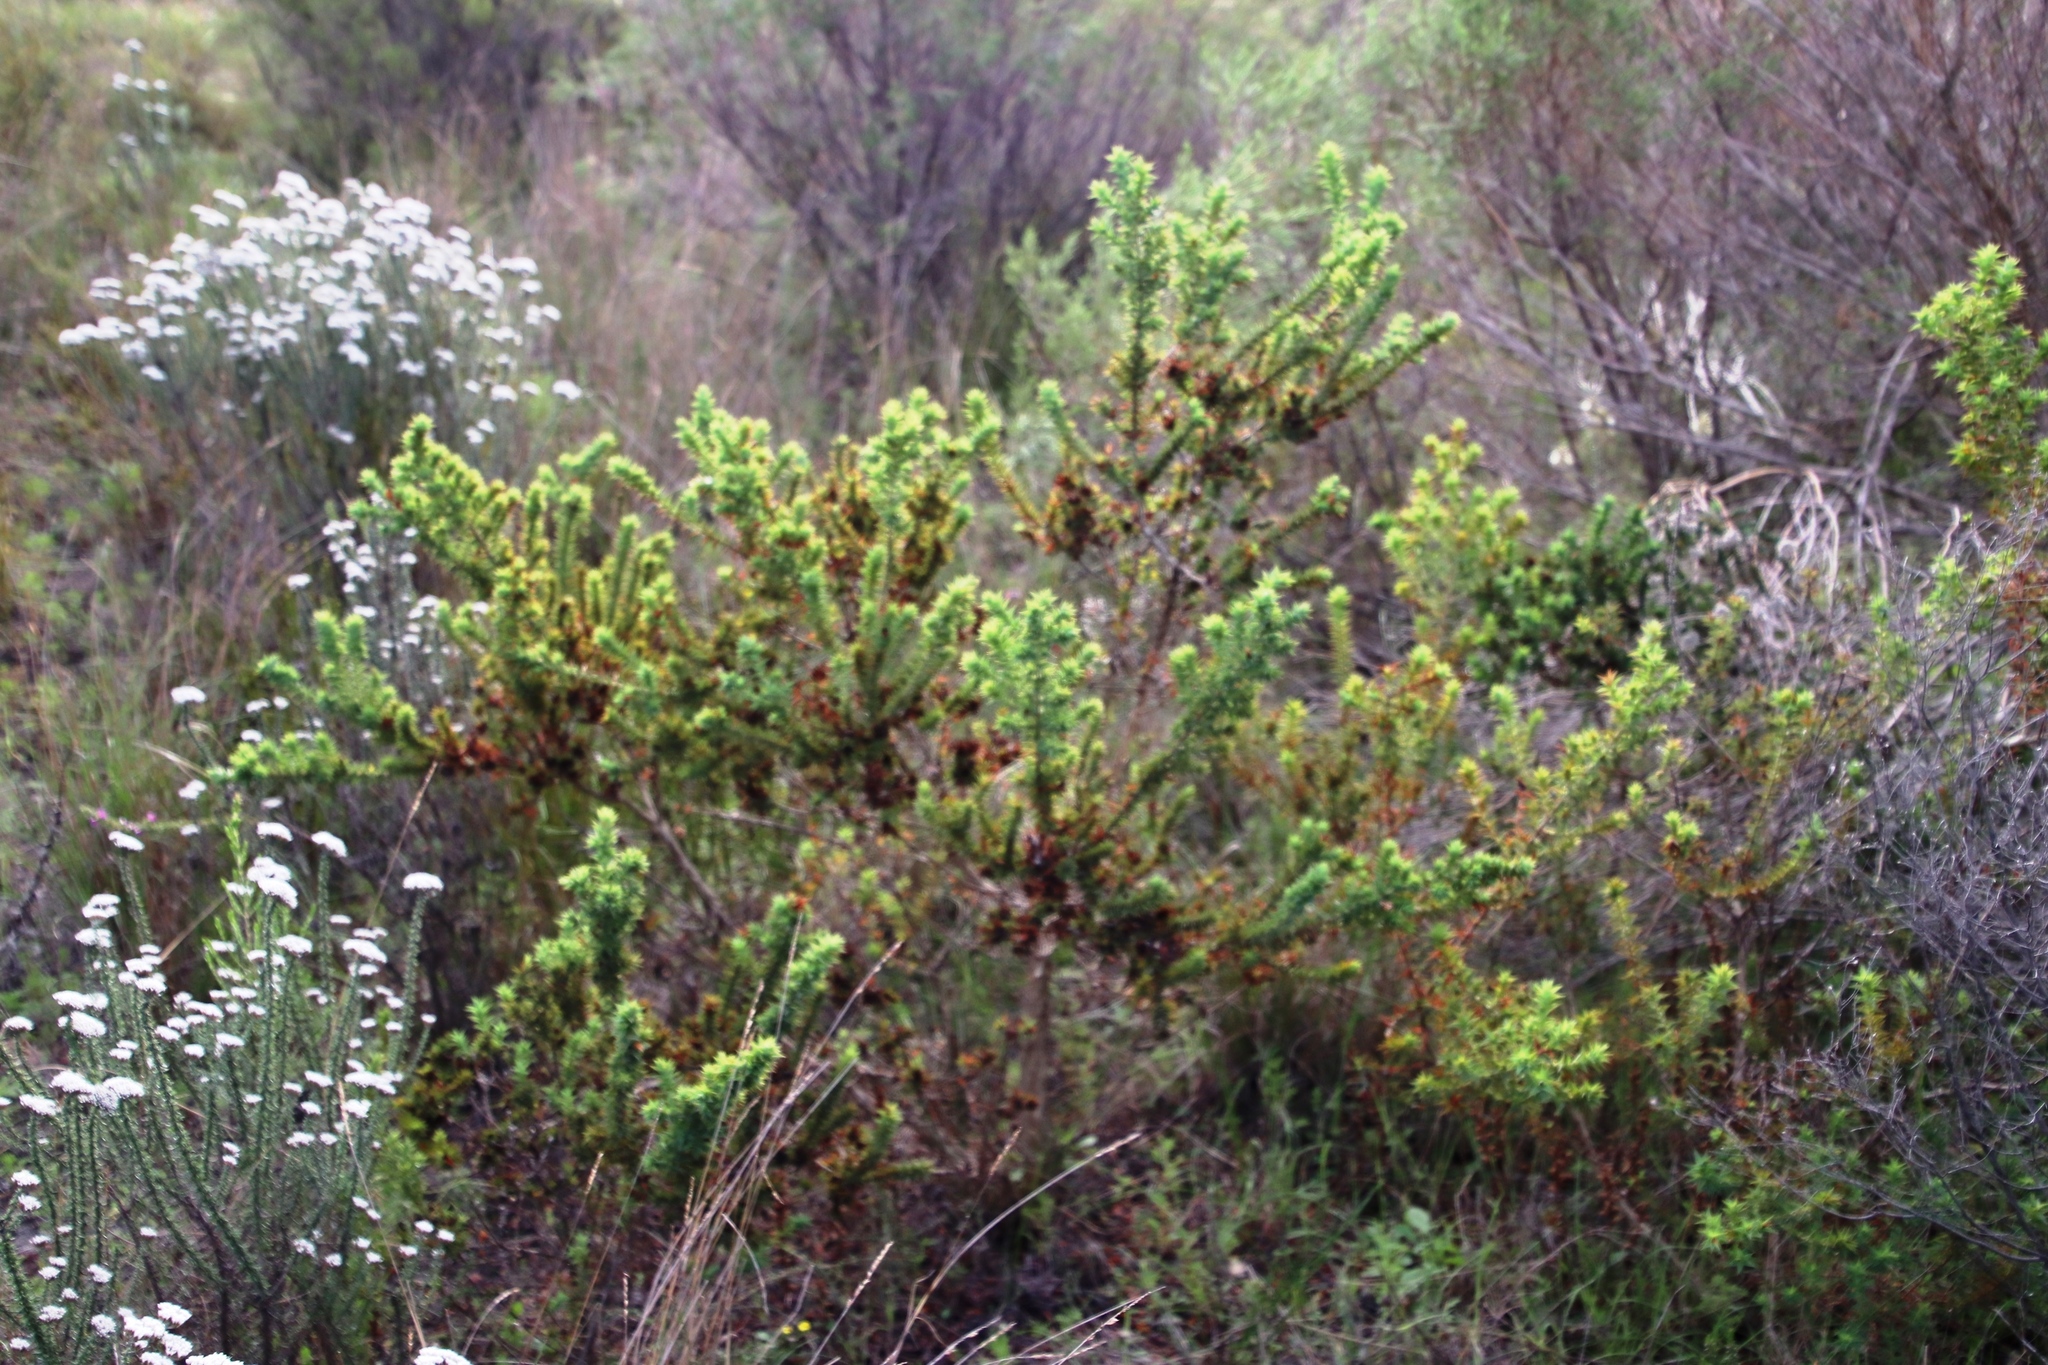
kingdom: Plantae
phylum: Tracheophyta
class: Magnoliopsida
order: Fabales
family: Fabaceae
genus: Aspalathus
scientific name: Aspalathus cordata
